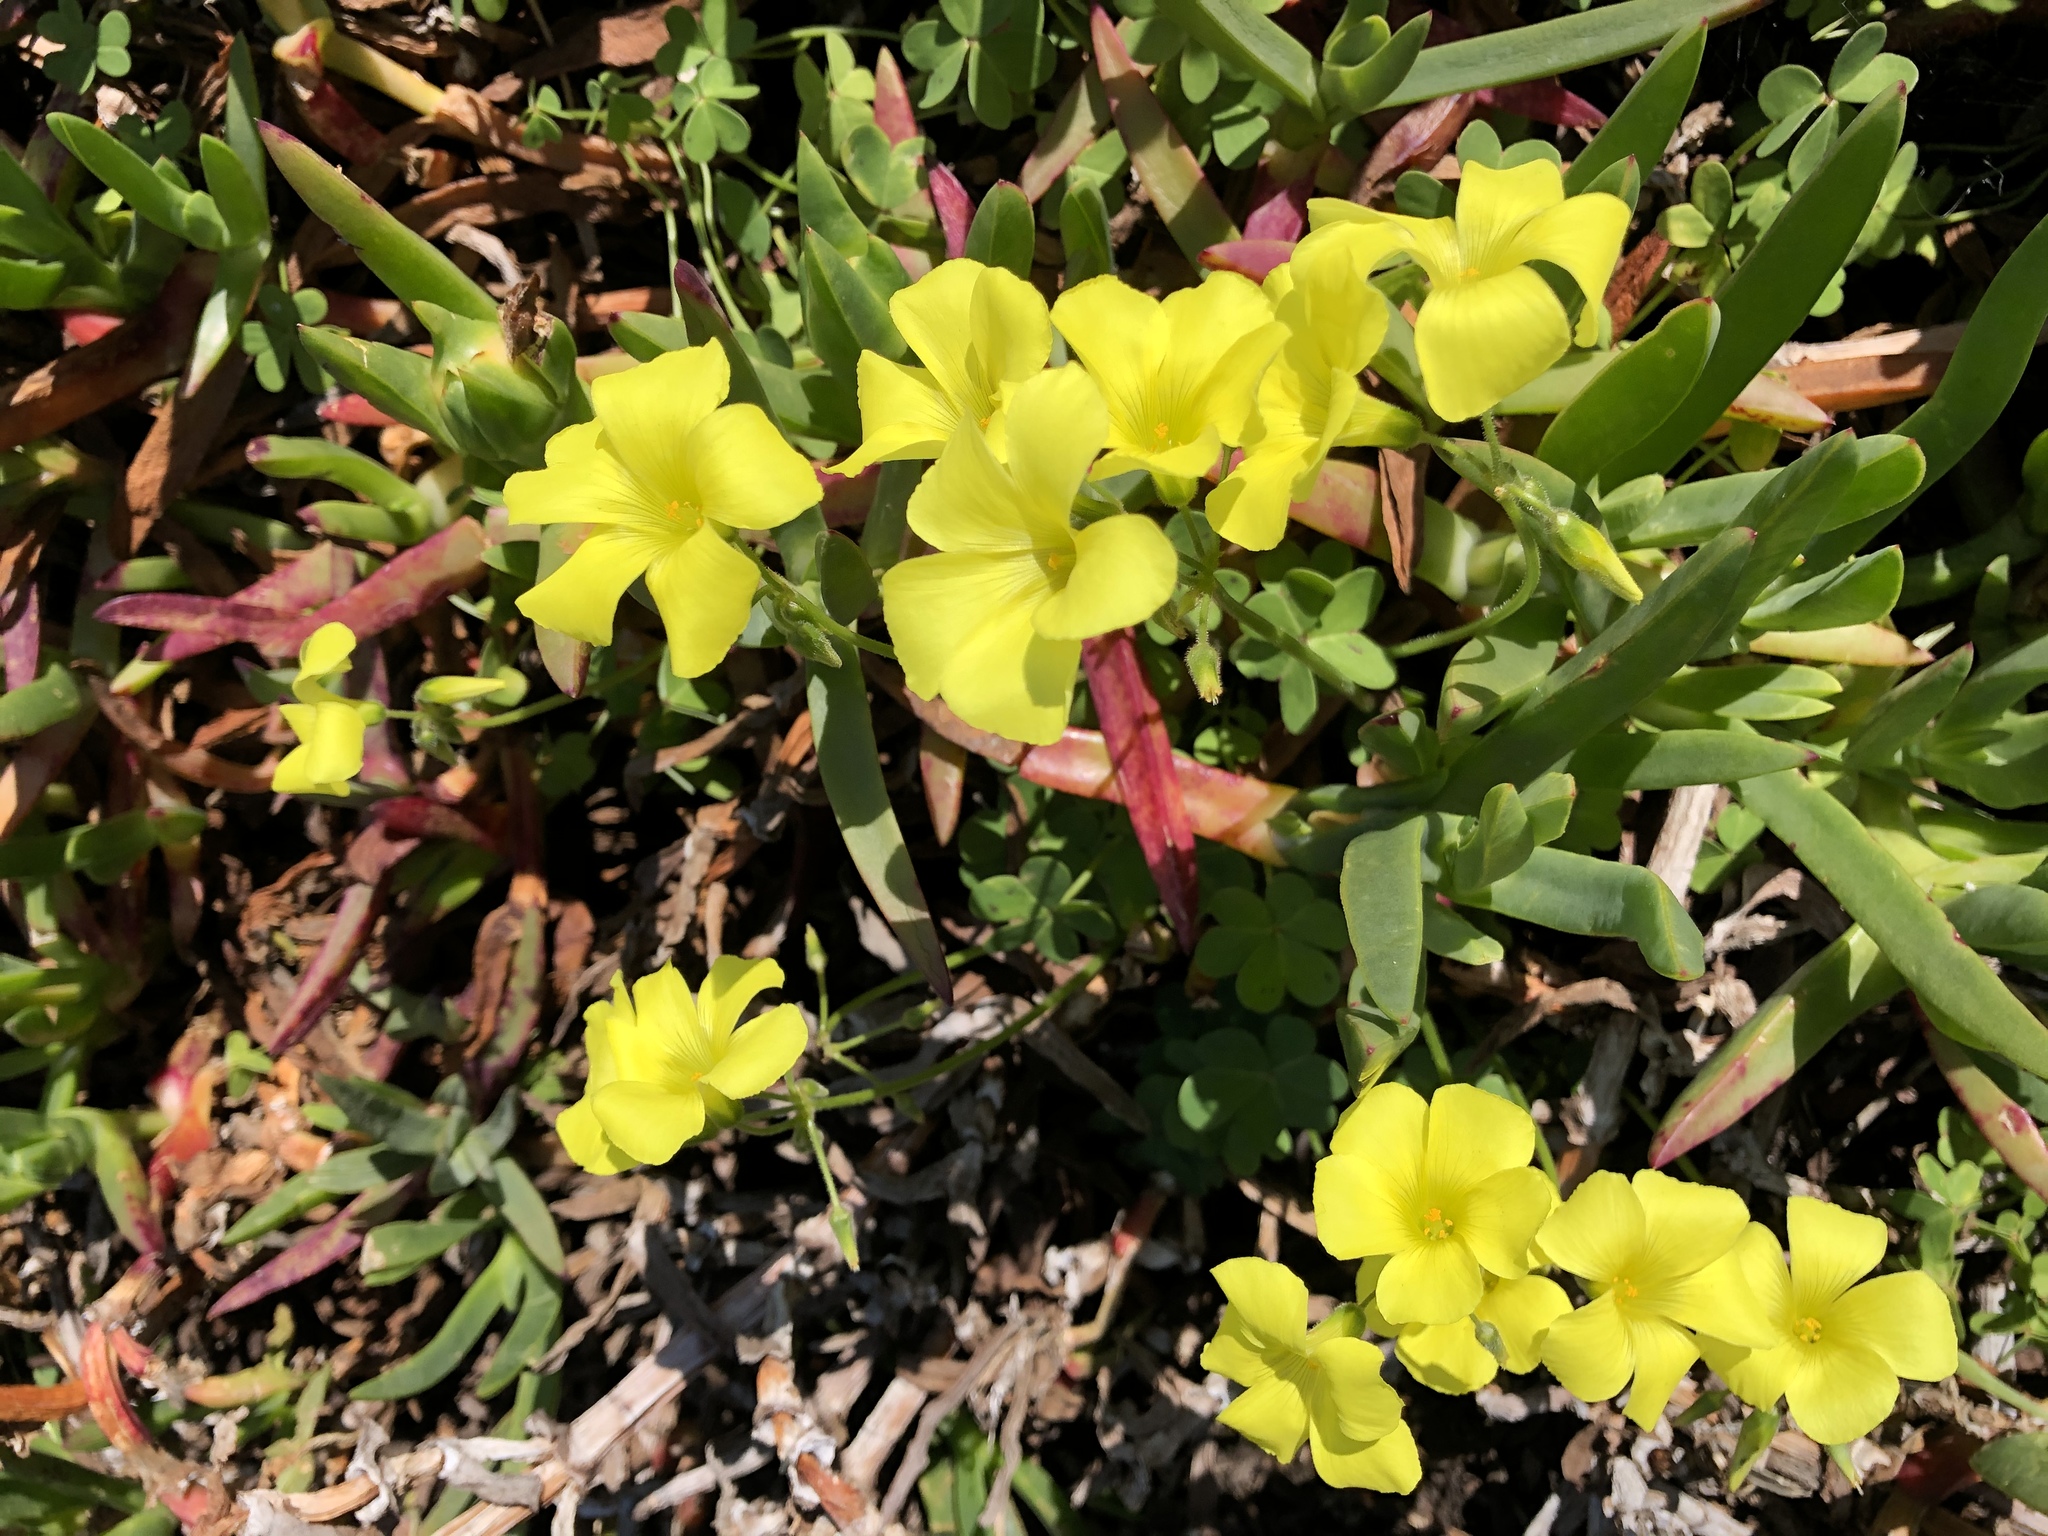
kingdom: Plantae
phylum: Tracheophyta
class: Magnoliopsida
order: Oxalidales
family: Oxalidaceae
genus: Oxalis
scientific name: Oxalis pes-caprae
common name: Bermuda-buttercup
